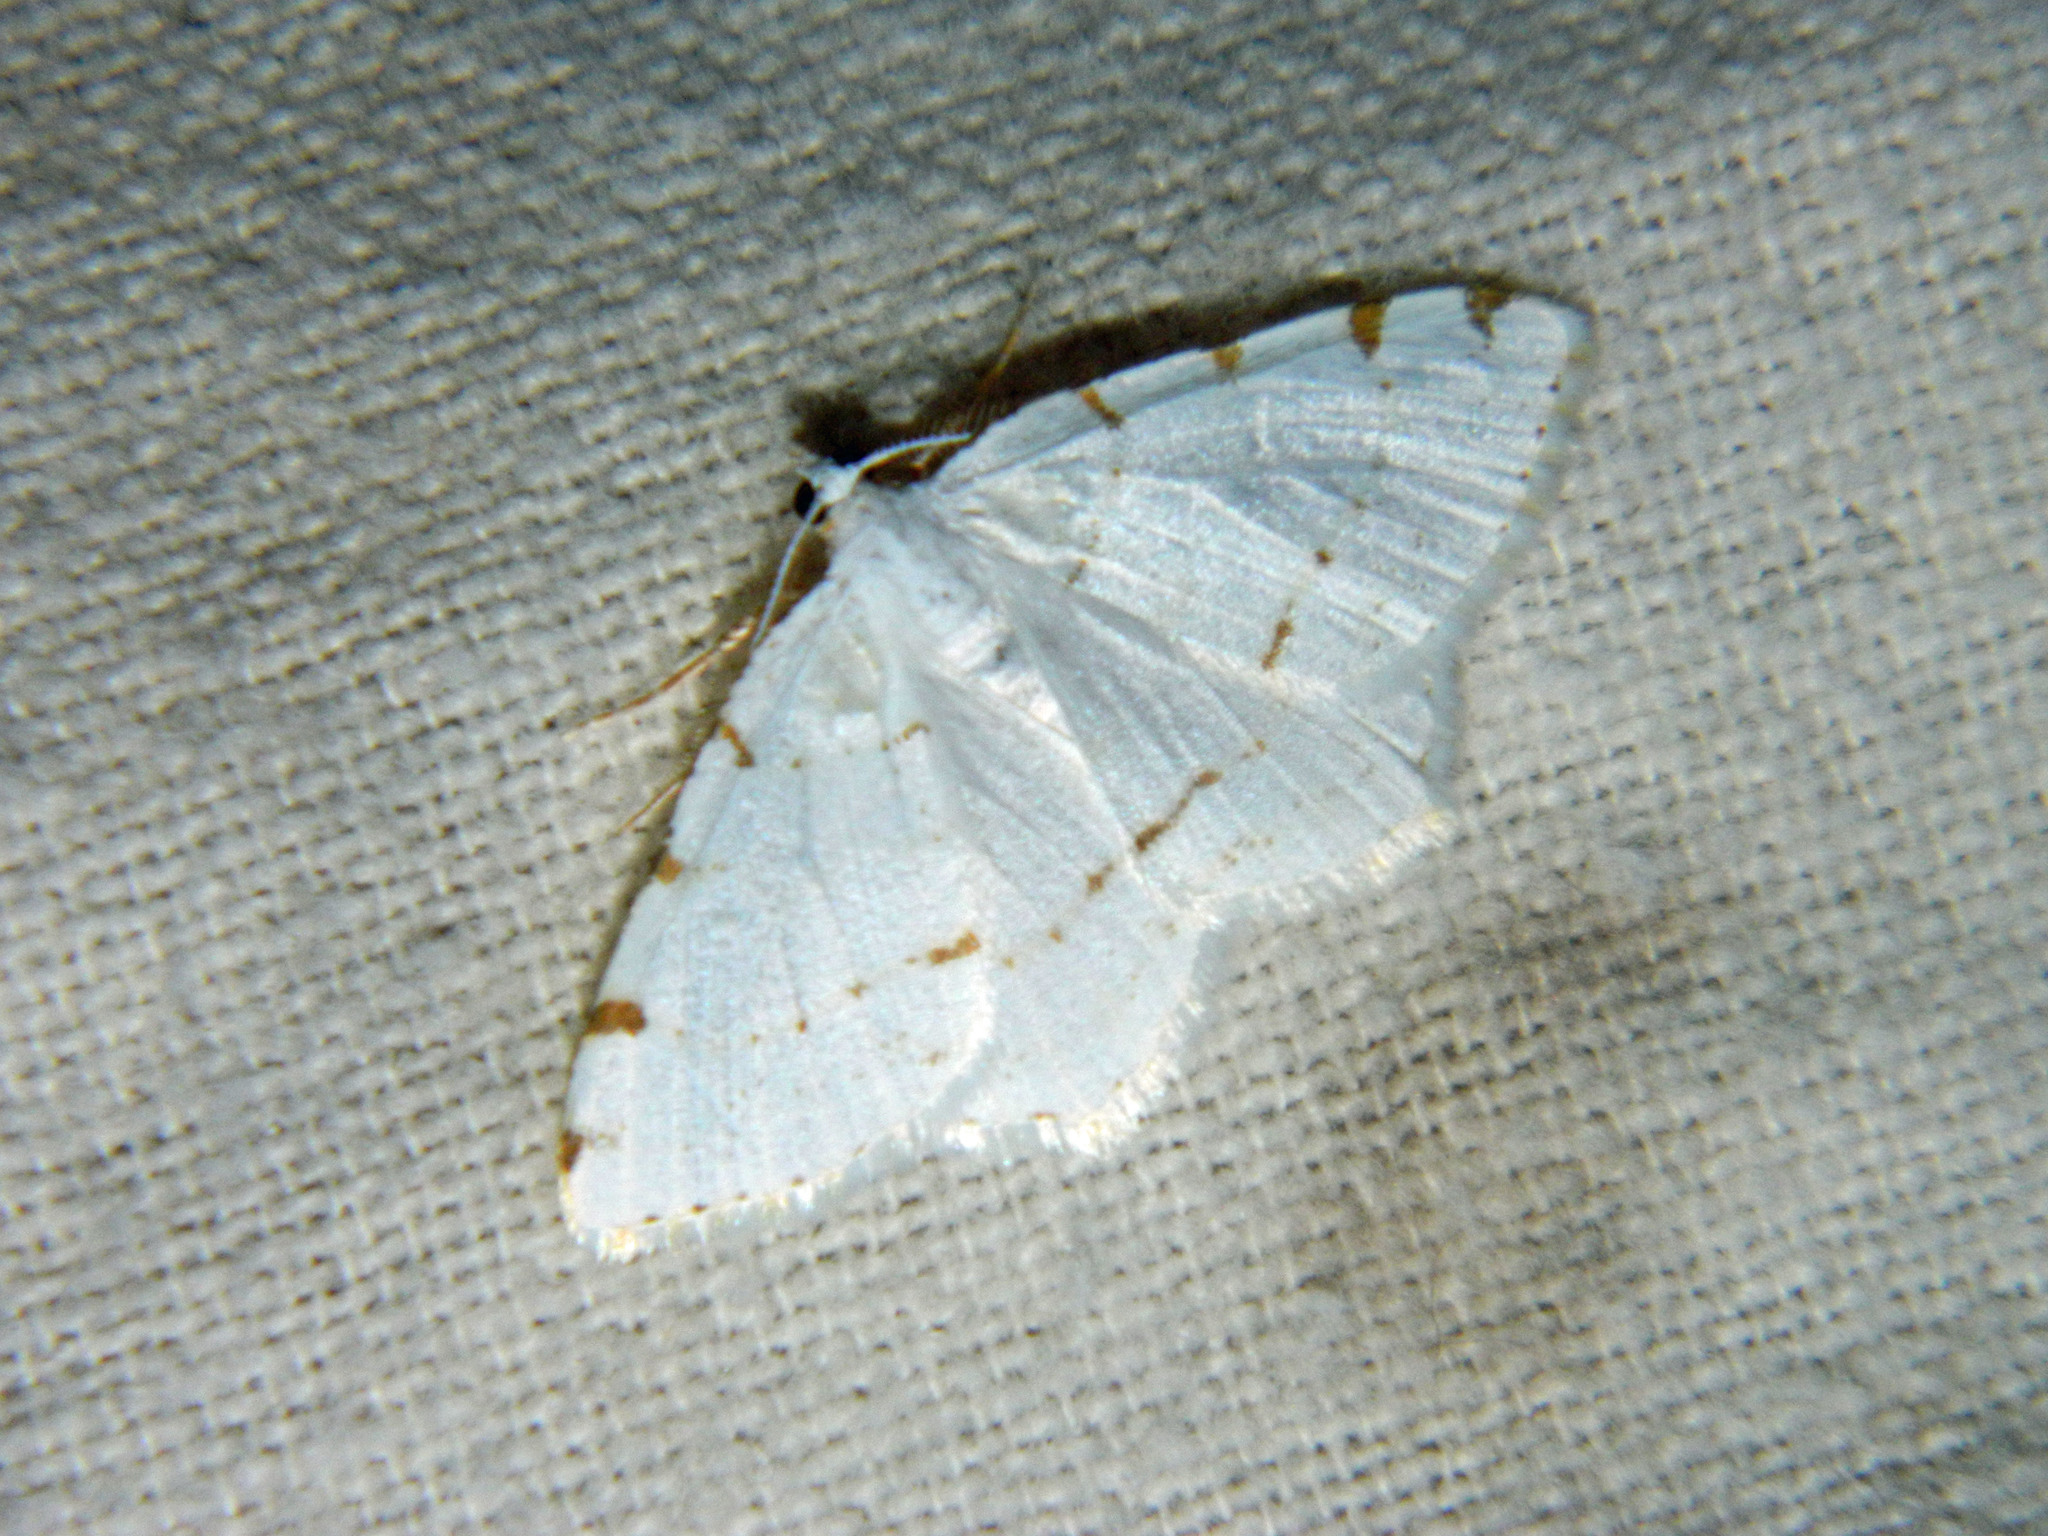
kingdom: Animalia
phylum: Arthropoda
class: Insecta
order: Lepidoptera
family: Geometridae
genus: Macaria
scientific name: Macaria pustularia
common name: Lesser maple spanworm moth
